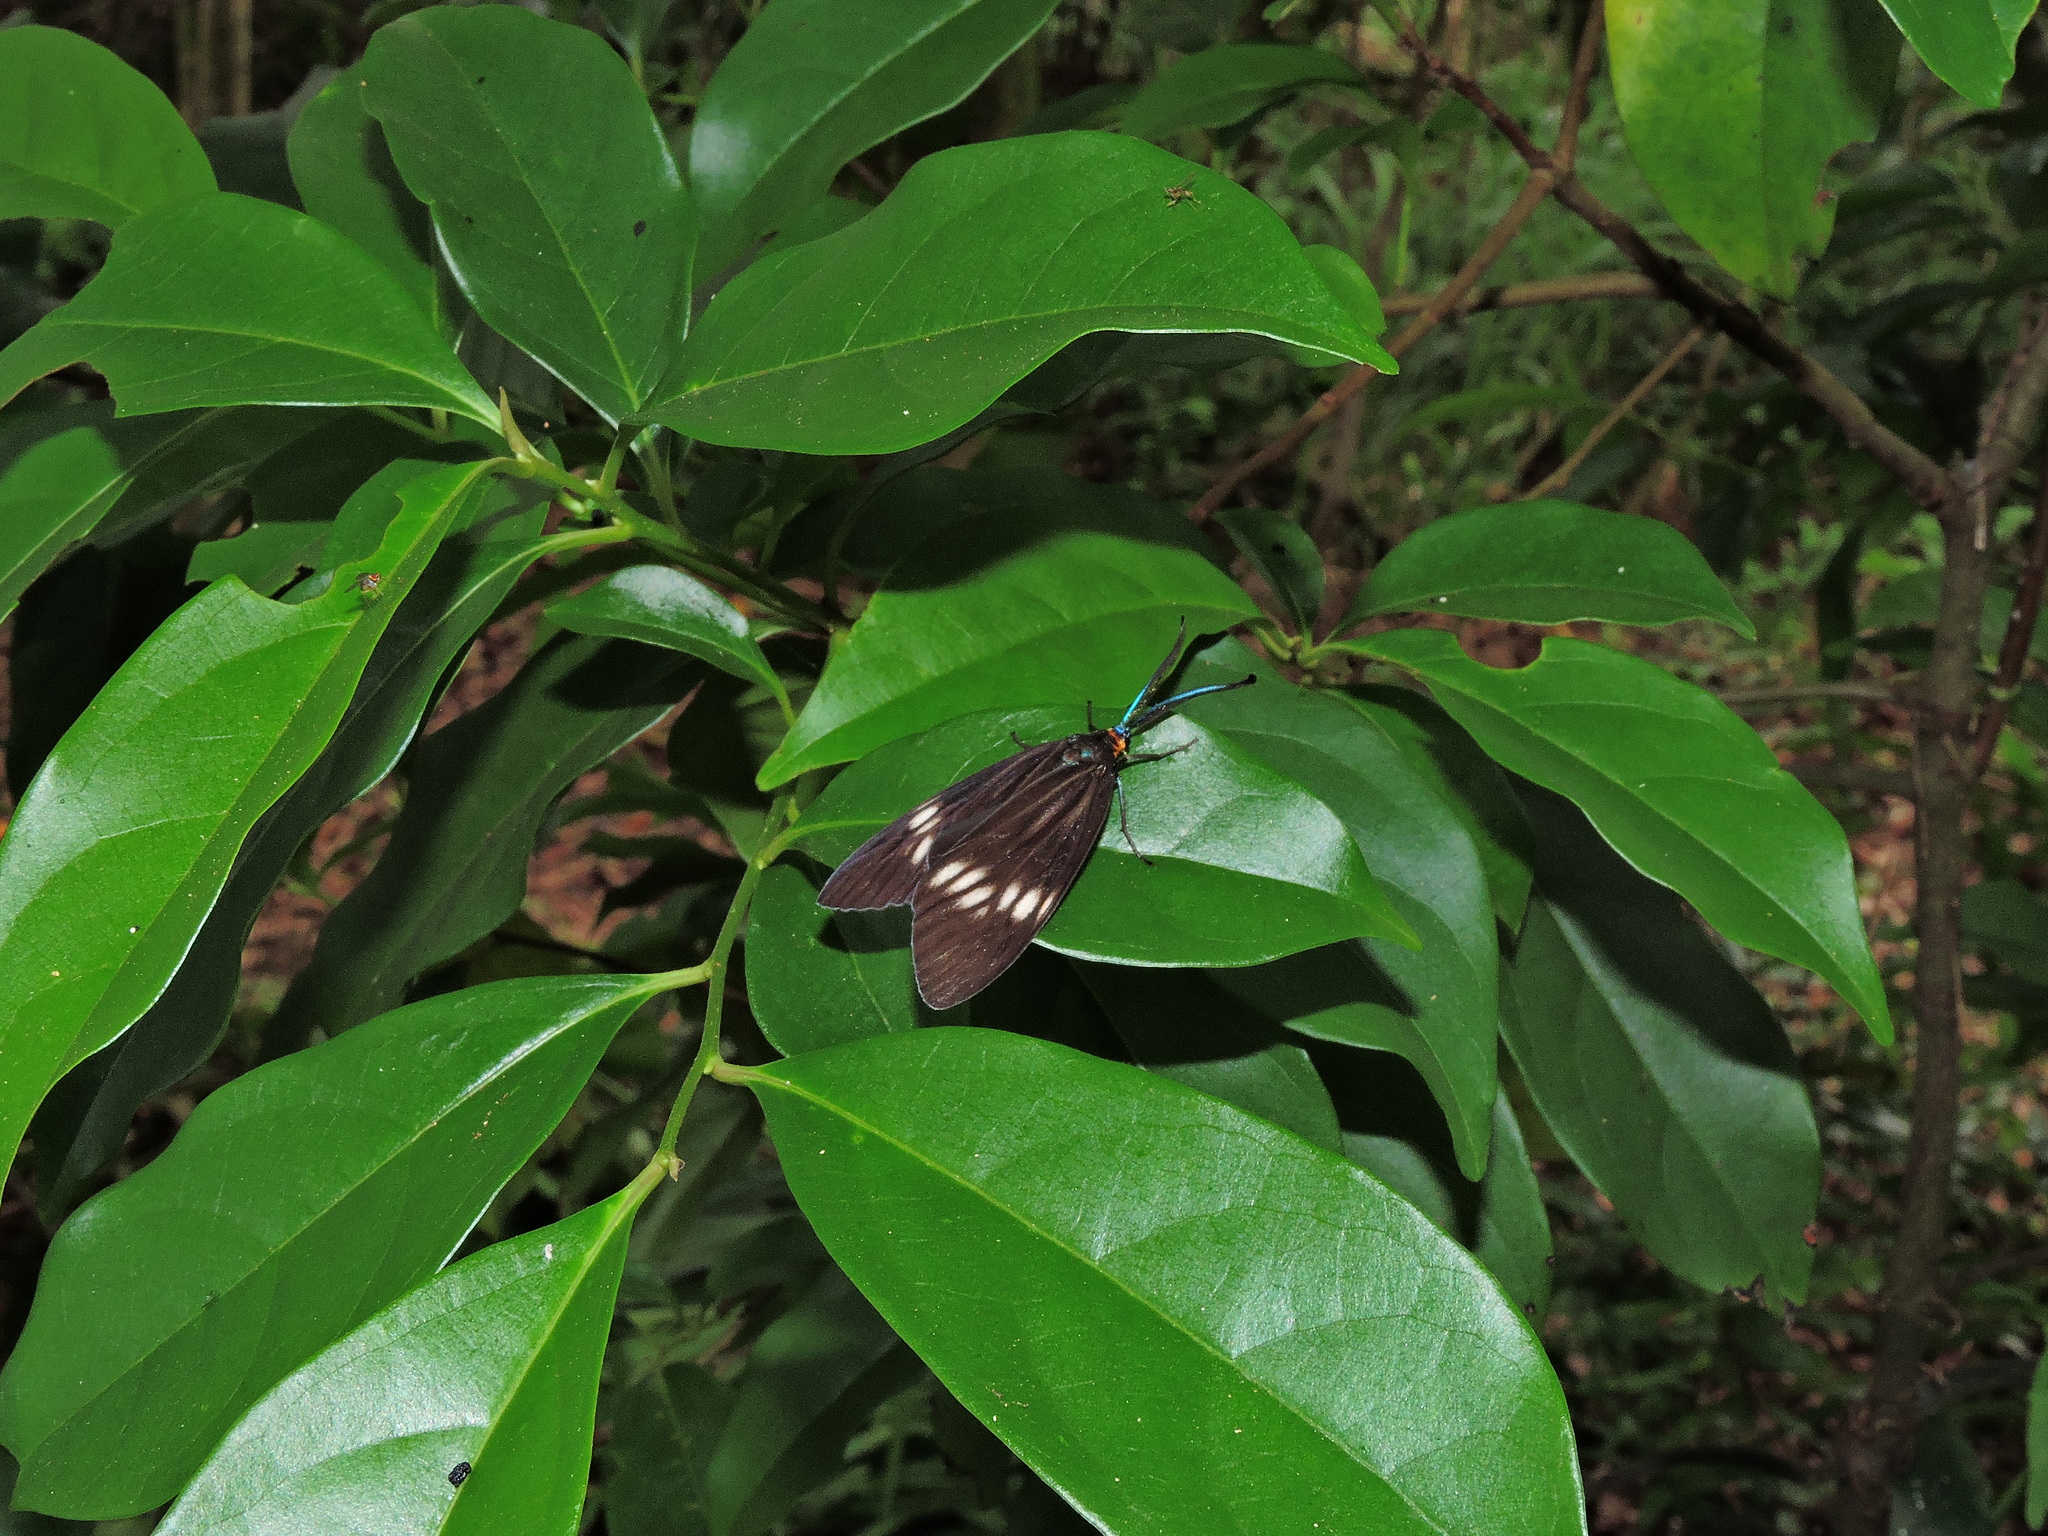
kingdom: Animalia
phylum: Arthropoda
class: Insecta
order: Lepidoptera
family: Zygaenidae
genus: Chalcosia
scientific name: Chalcosia formosana
